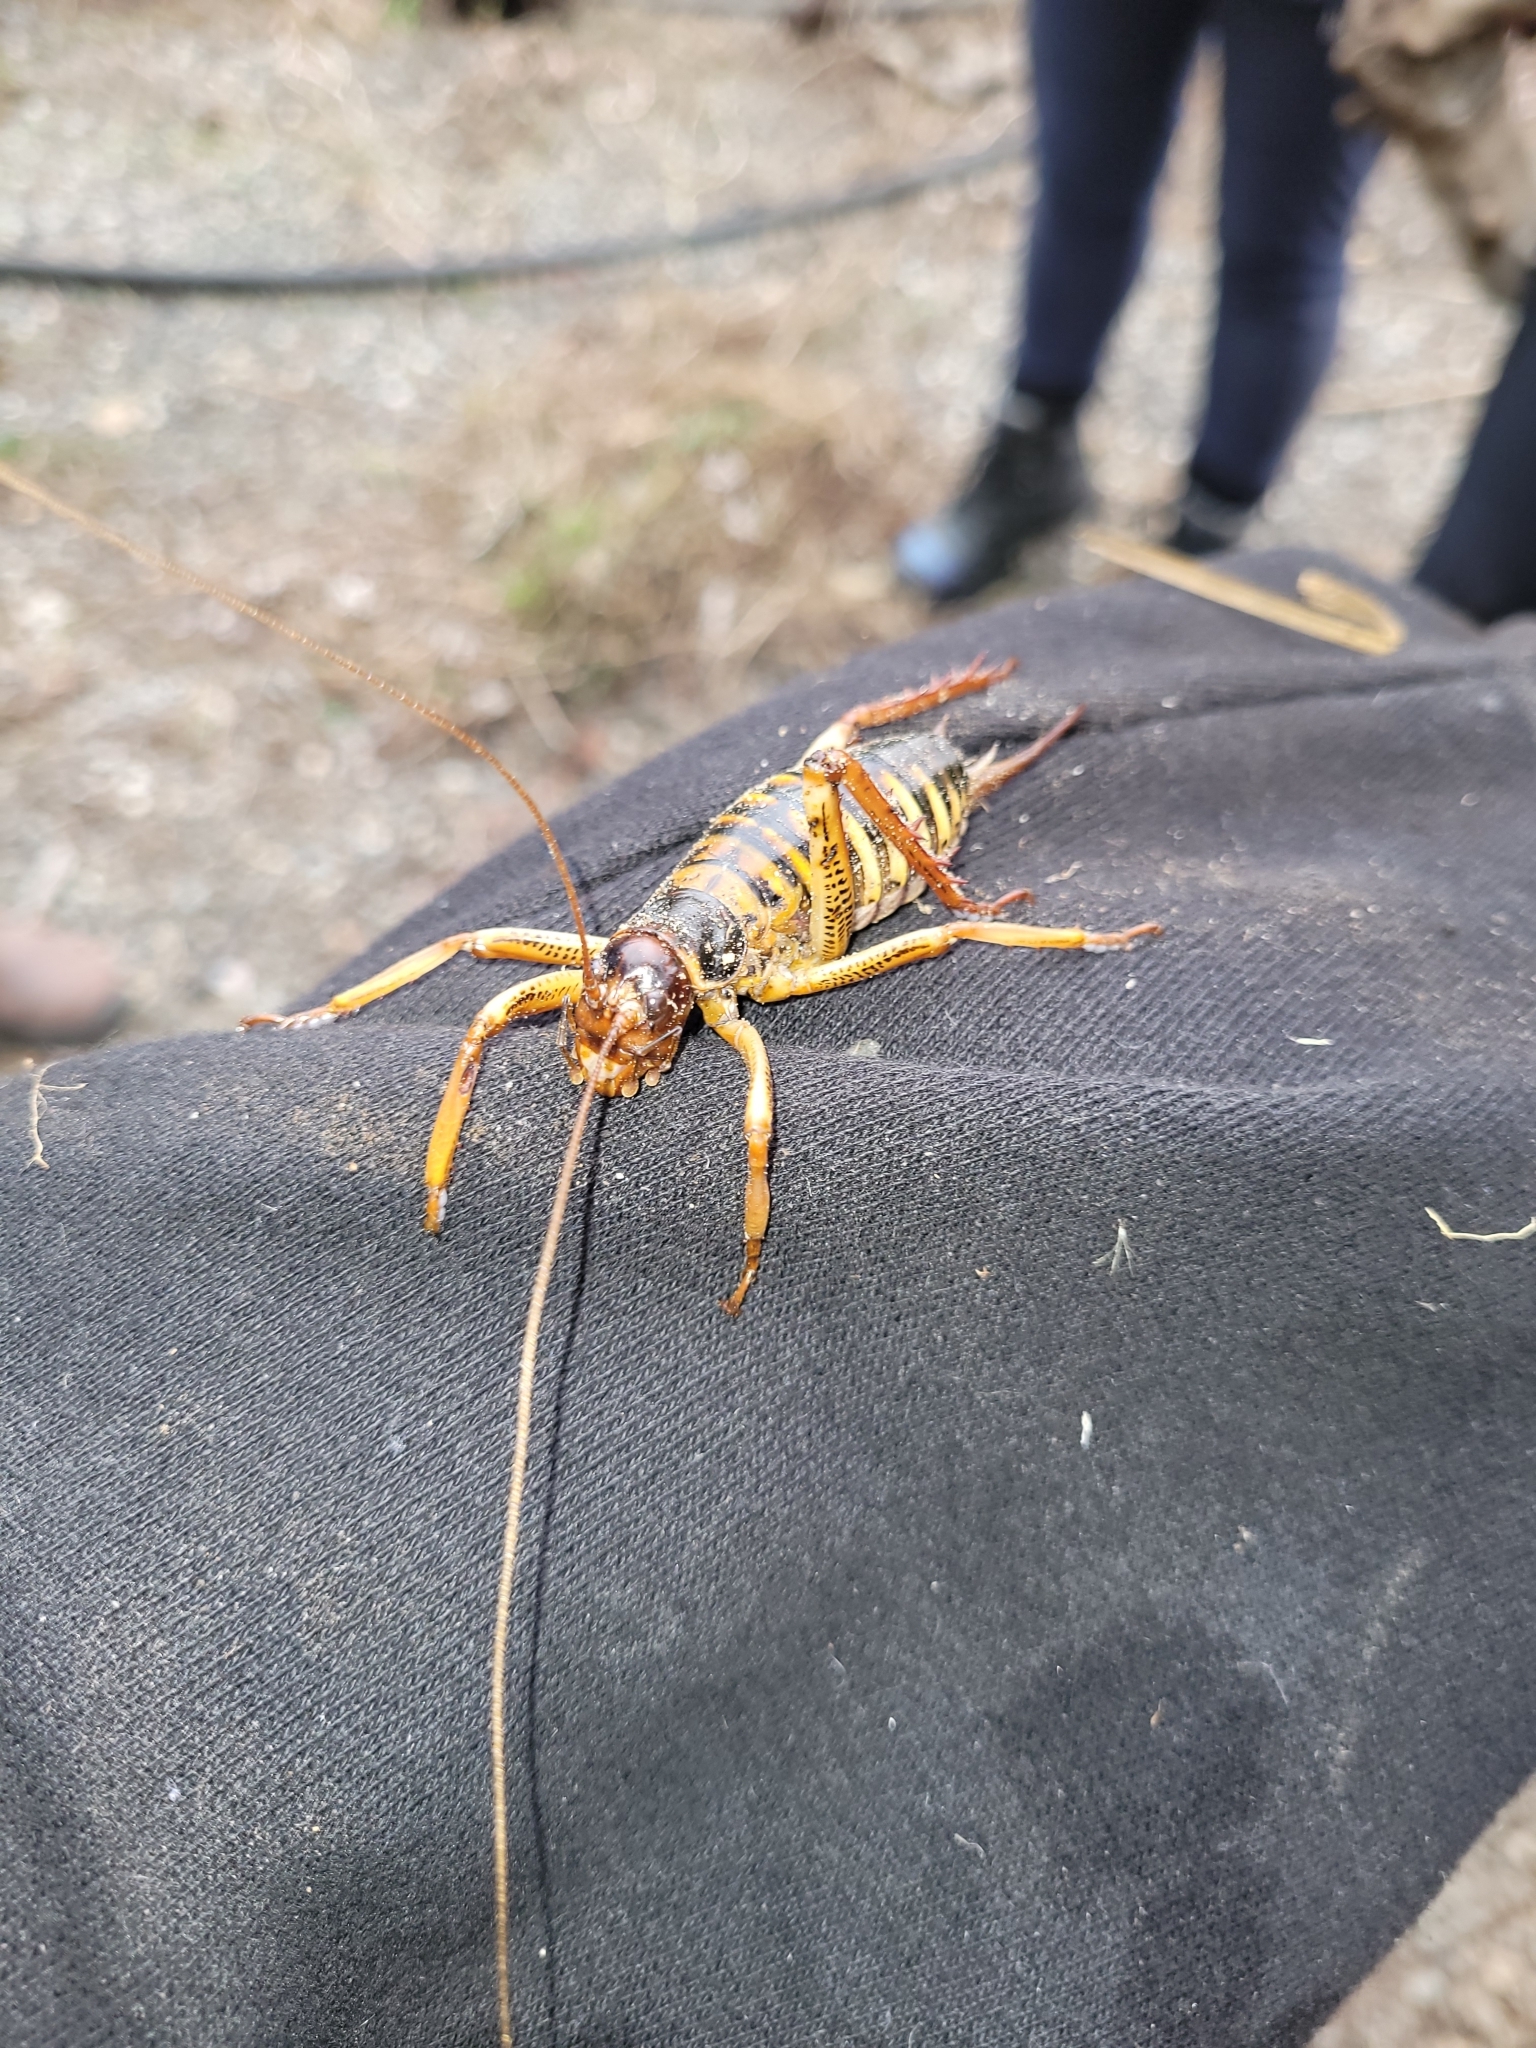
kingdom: Animalia
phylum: Arthropoda
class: Insecta
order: Orthoptera
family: Anostostomatidae
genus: Hemideina
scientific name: Hemideina crassidens
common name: Wellington tree weta
